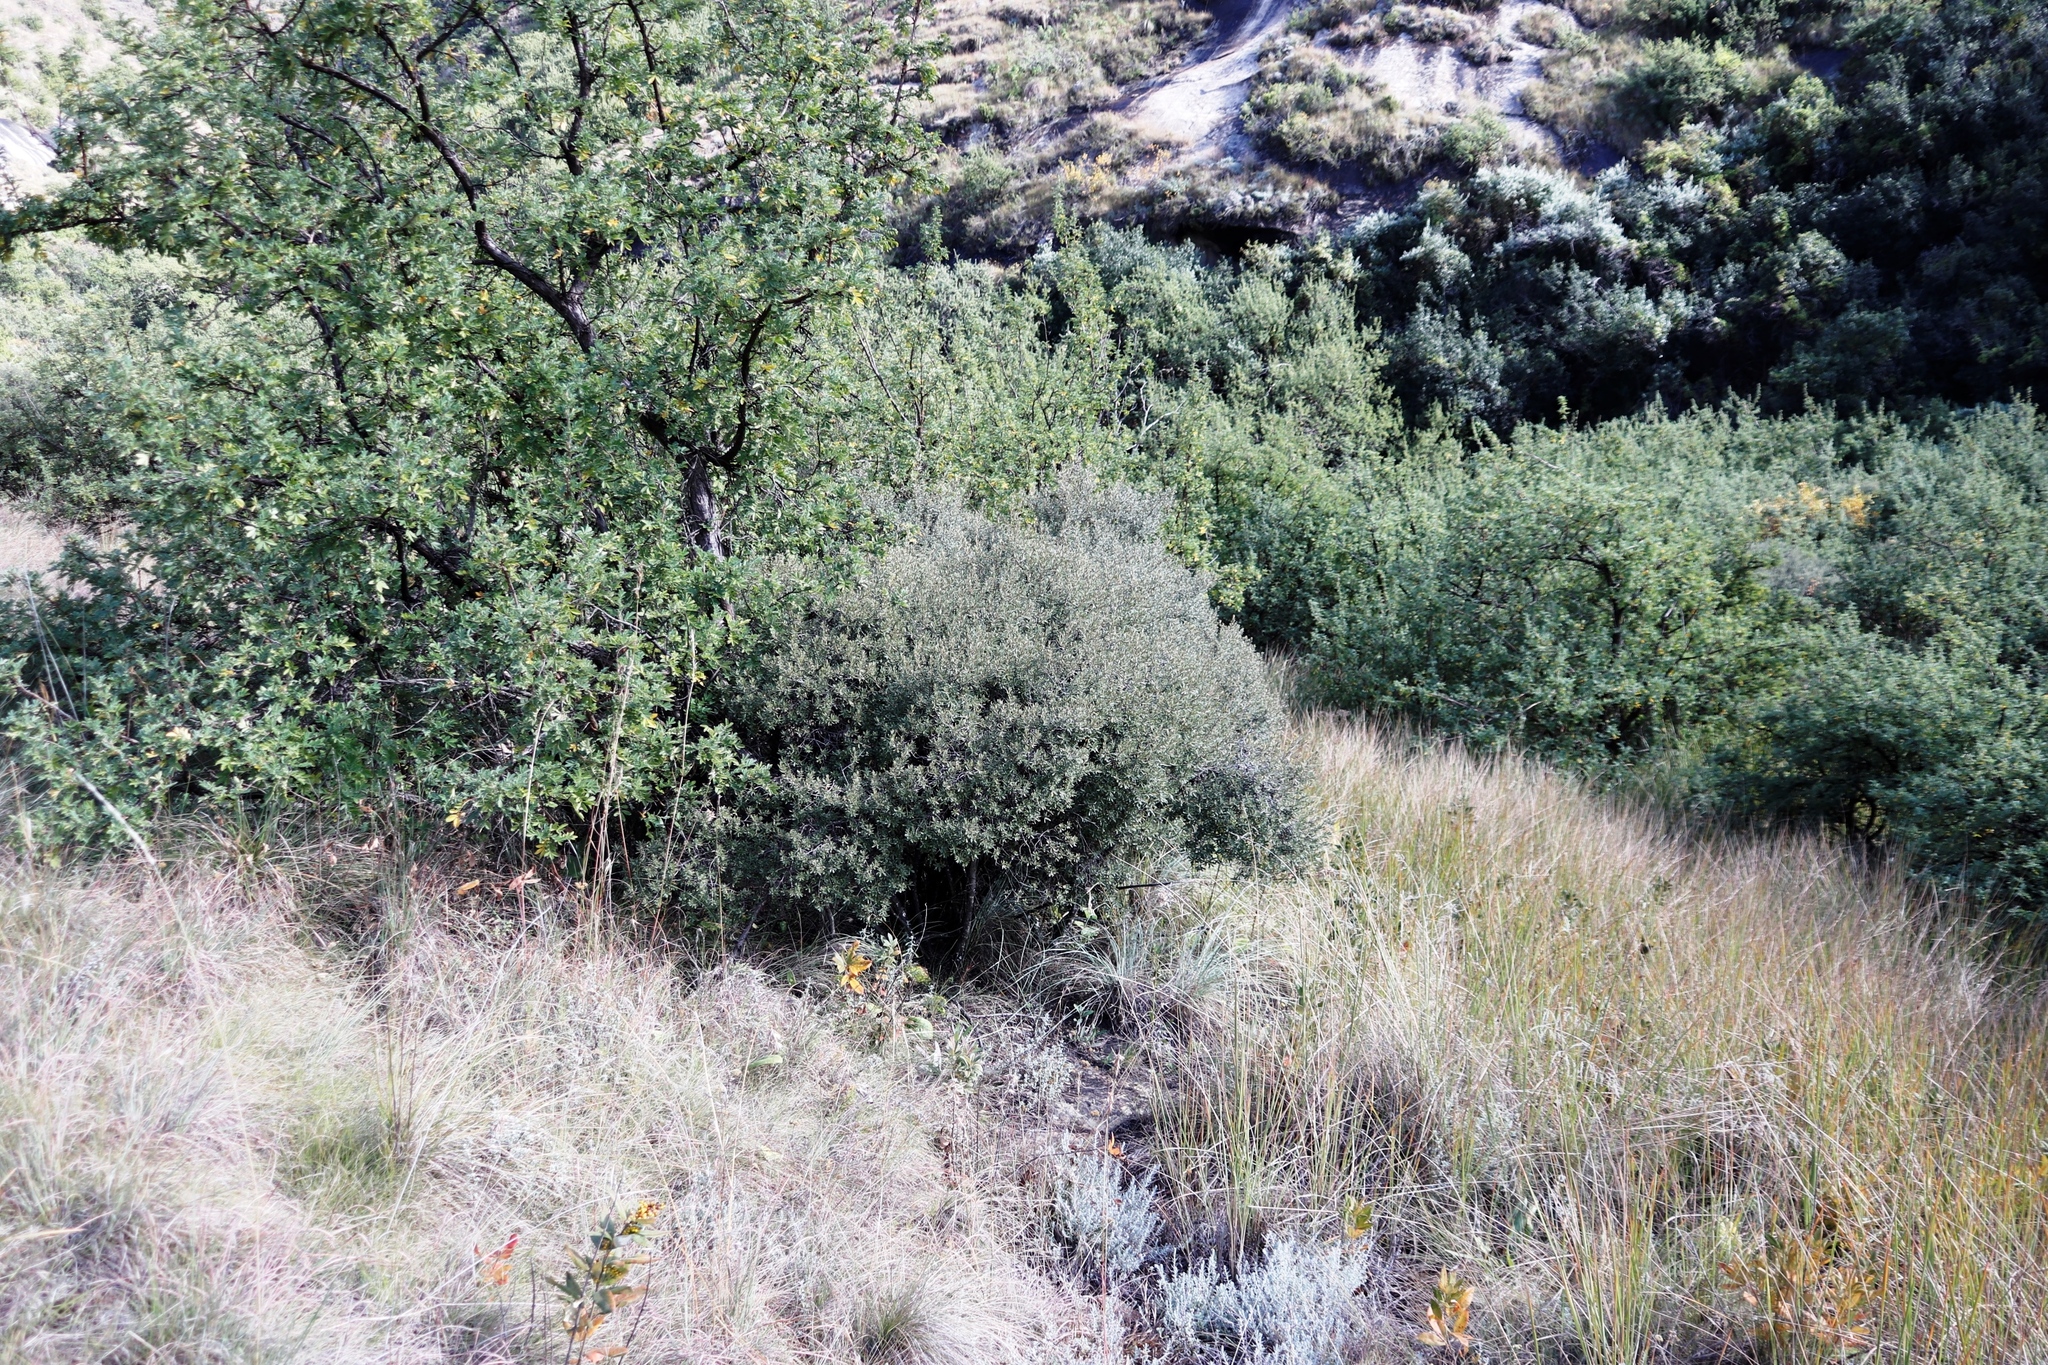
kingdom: Plantae
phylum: Tracheophyta
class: Magnoliopsida
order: Ericales
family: Ebenaceae
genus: Diospyros
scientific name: Diospyros pubescens
